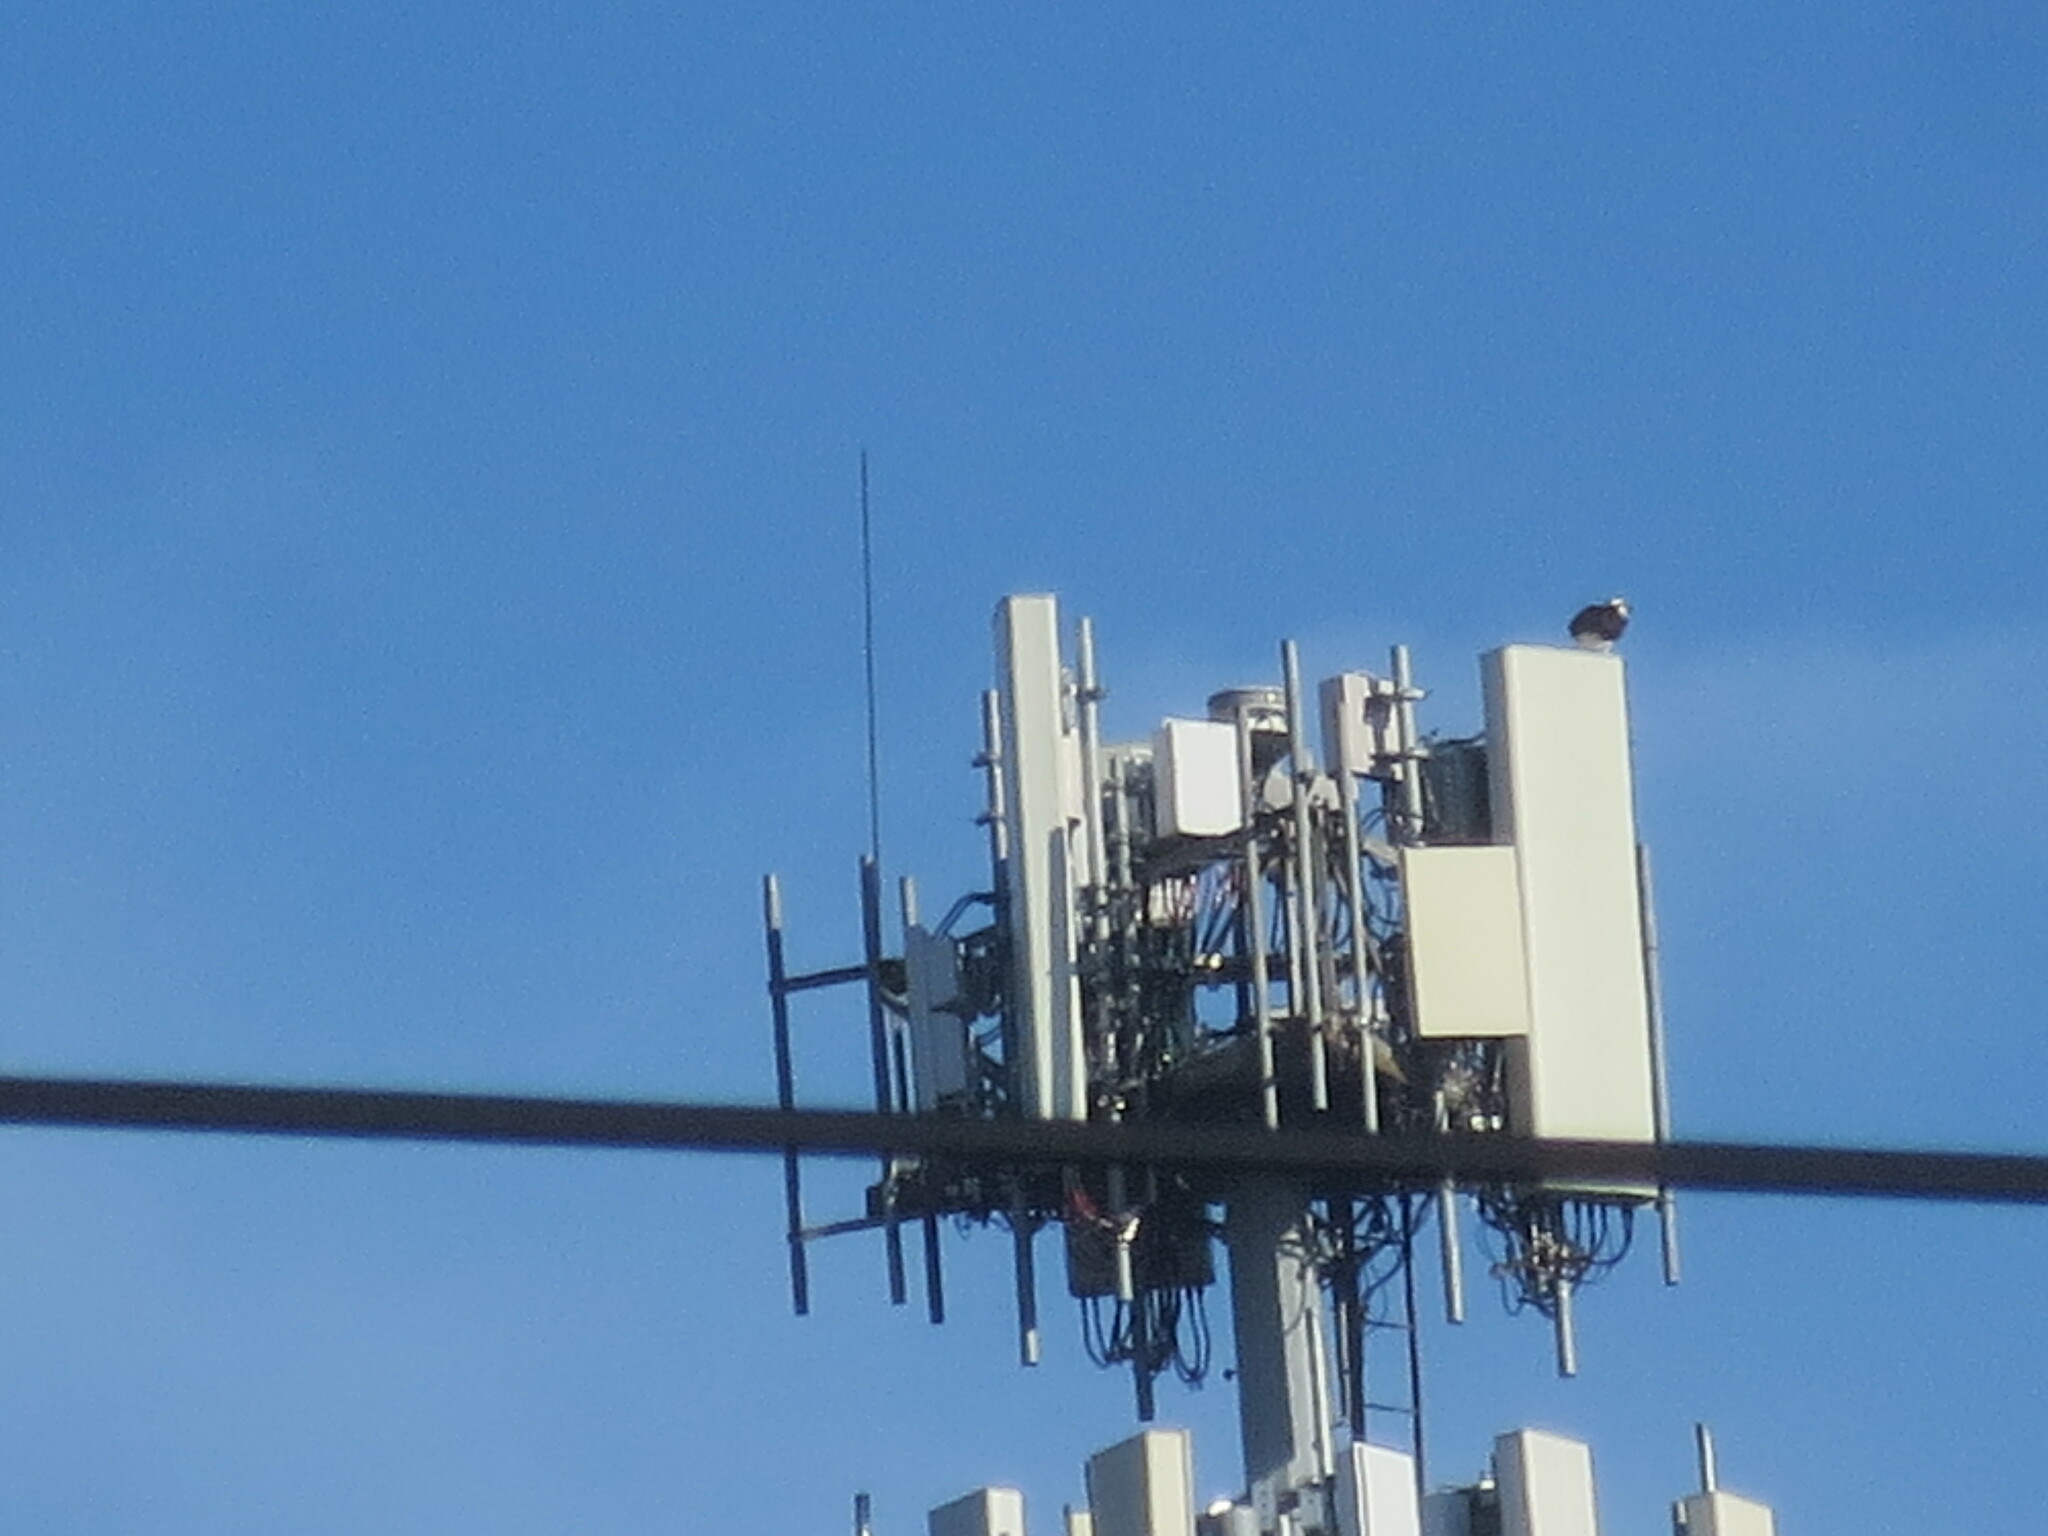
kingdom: Animalia
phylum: Chordata
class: Aves
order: Accipitriformes
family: Pandionidae
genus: Pandion
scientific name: Pandion haliaetus
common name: Osprey
